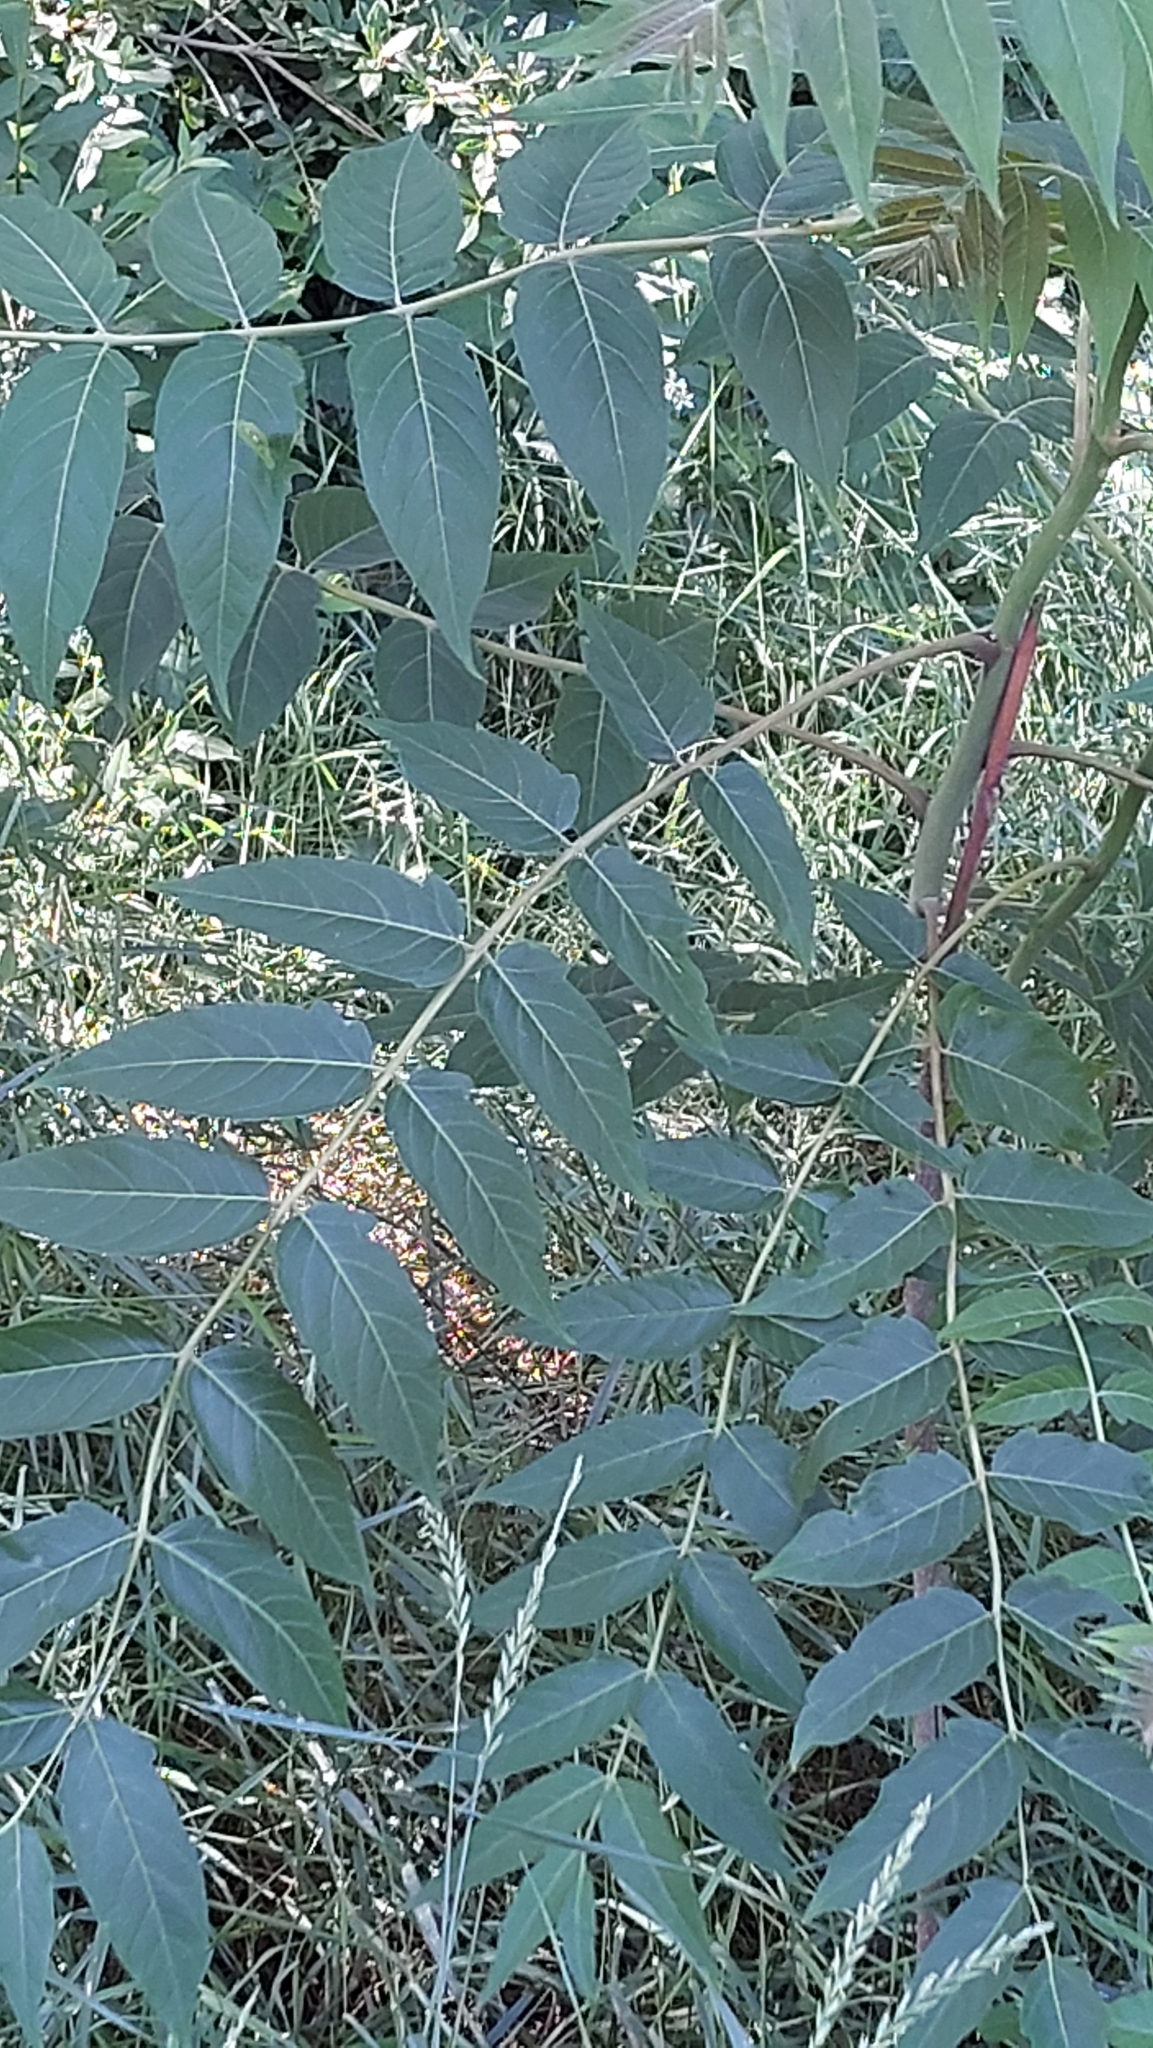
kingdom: Plantae
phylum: Tracheophyta
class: Magnoliopsida
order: Sapindales
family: Simaroubaceae
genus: Ailanthus
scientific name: Ailanthus altissima
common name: Tree-of-heaven
